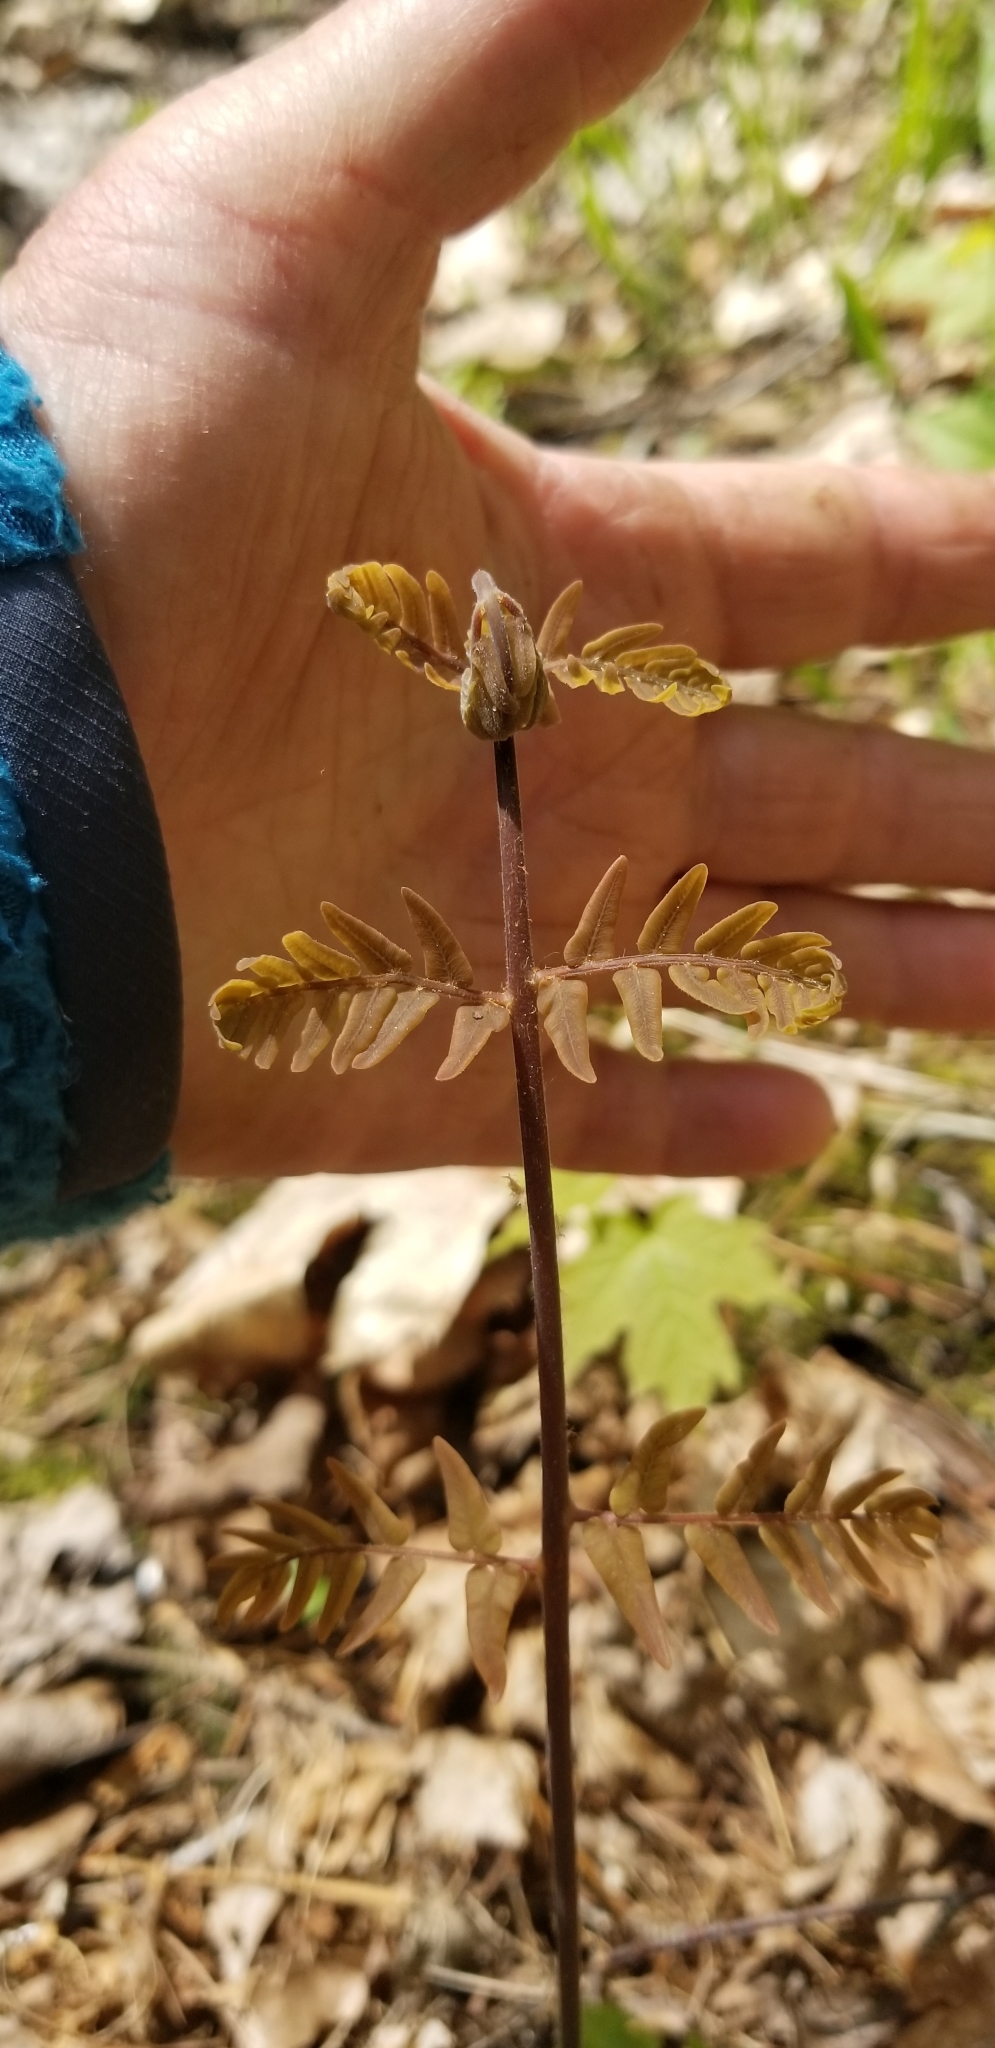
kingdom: Plantae
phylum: Tracheophyta
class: Polypodiopsida
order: Osmundales
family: Osmundaceae
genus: Osmunda
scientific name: Osmunda spectabilis
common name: American royal fern
